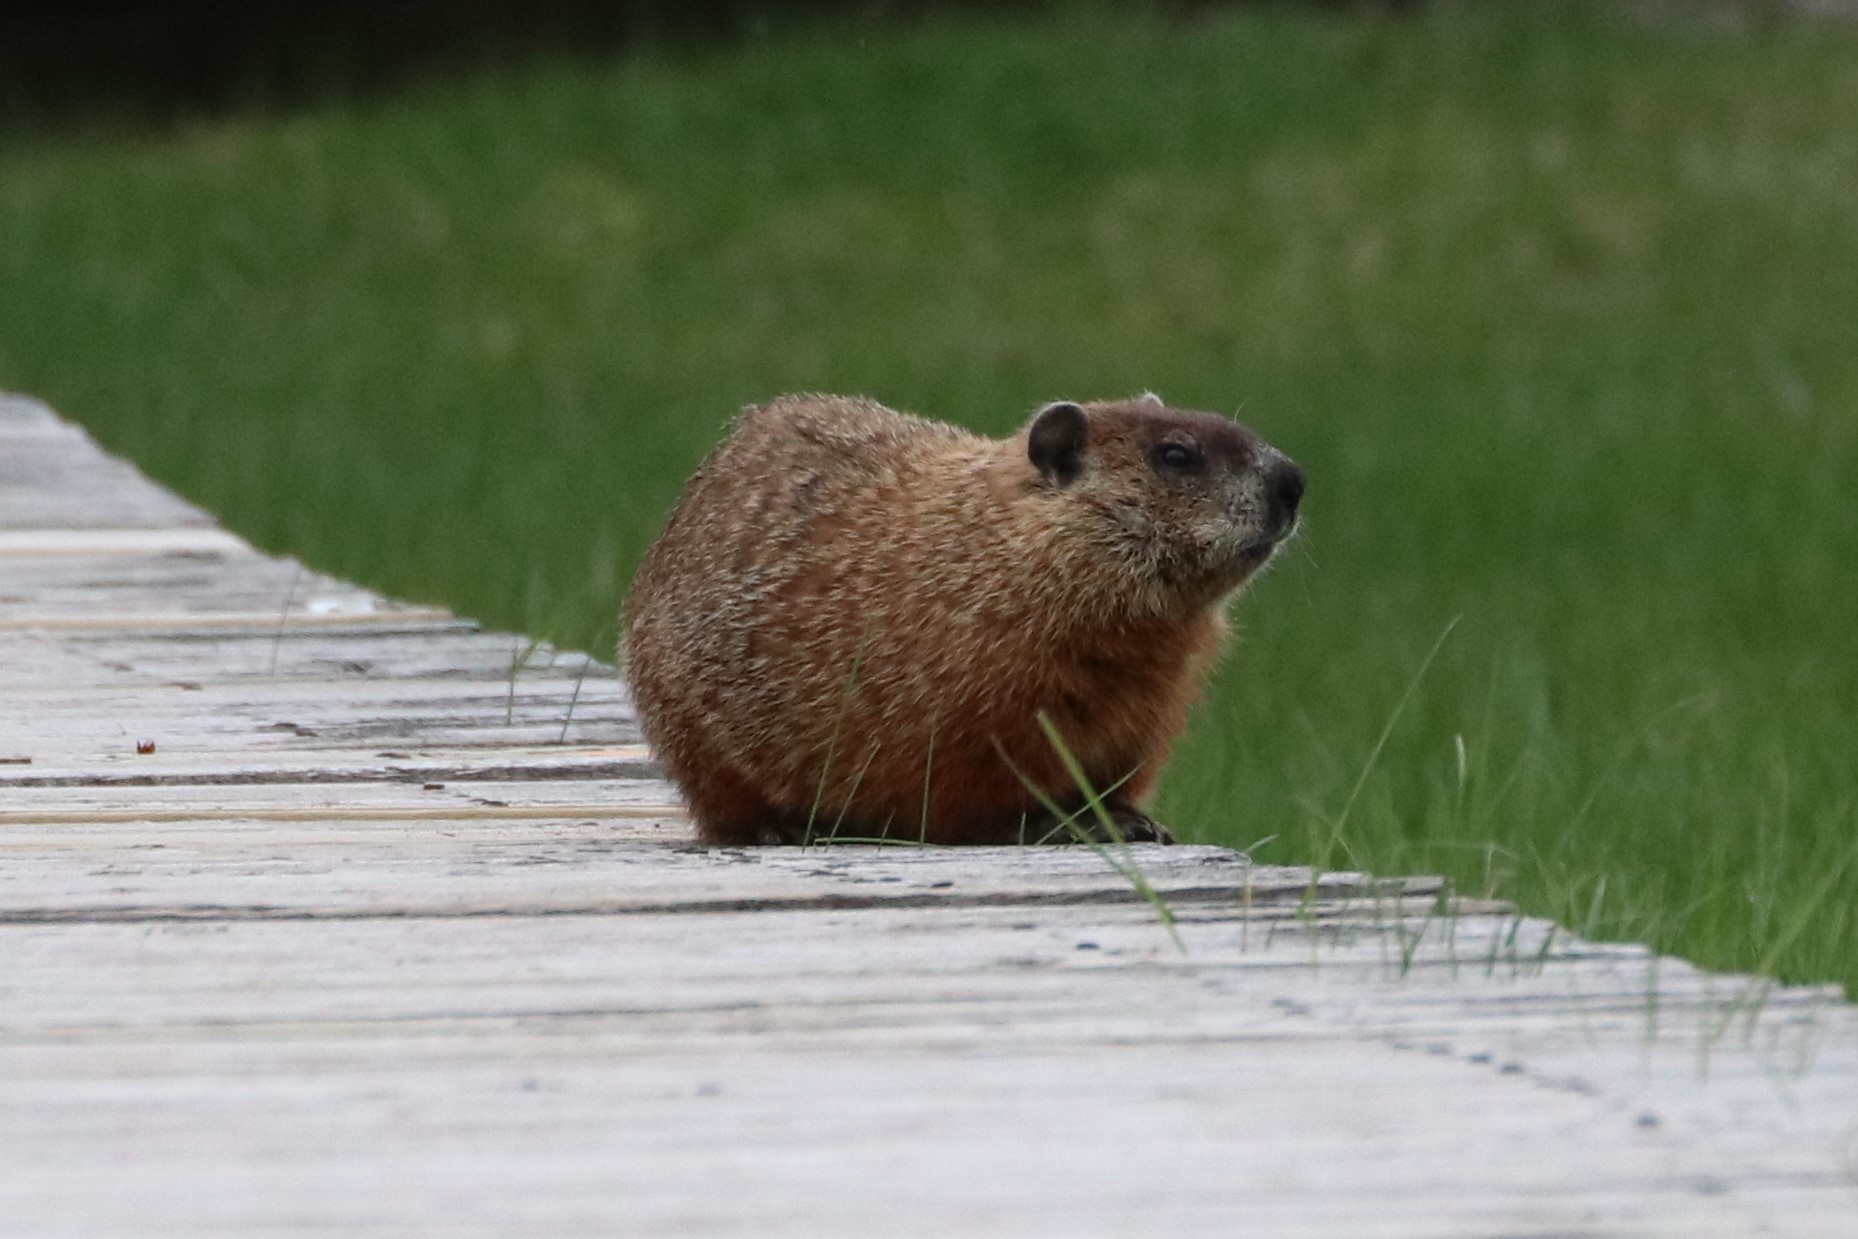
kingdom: Animalia
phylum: Chordata
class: Mammalia
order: Rodentia
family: Sciuridae
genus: Marmota
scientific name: Marmota monax
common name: Groundhog
